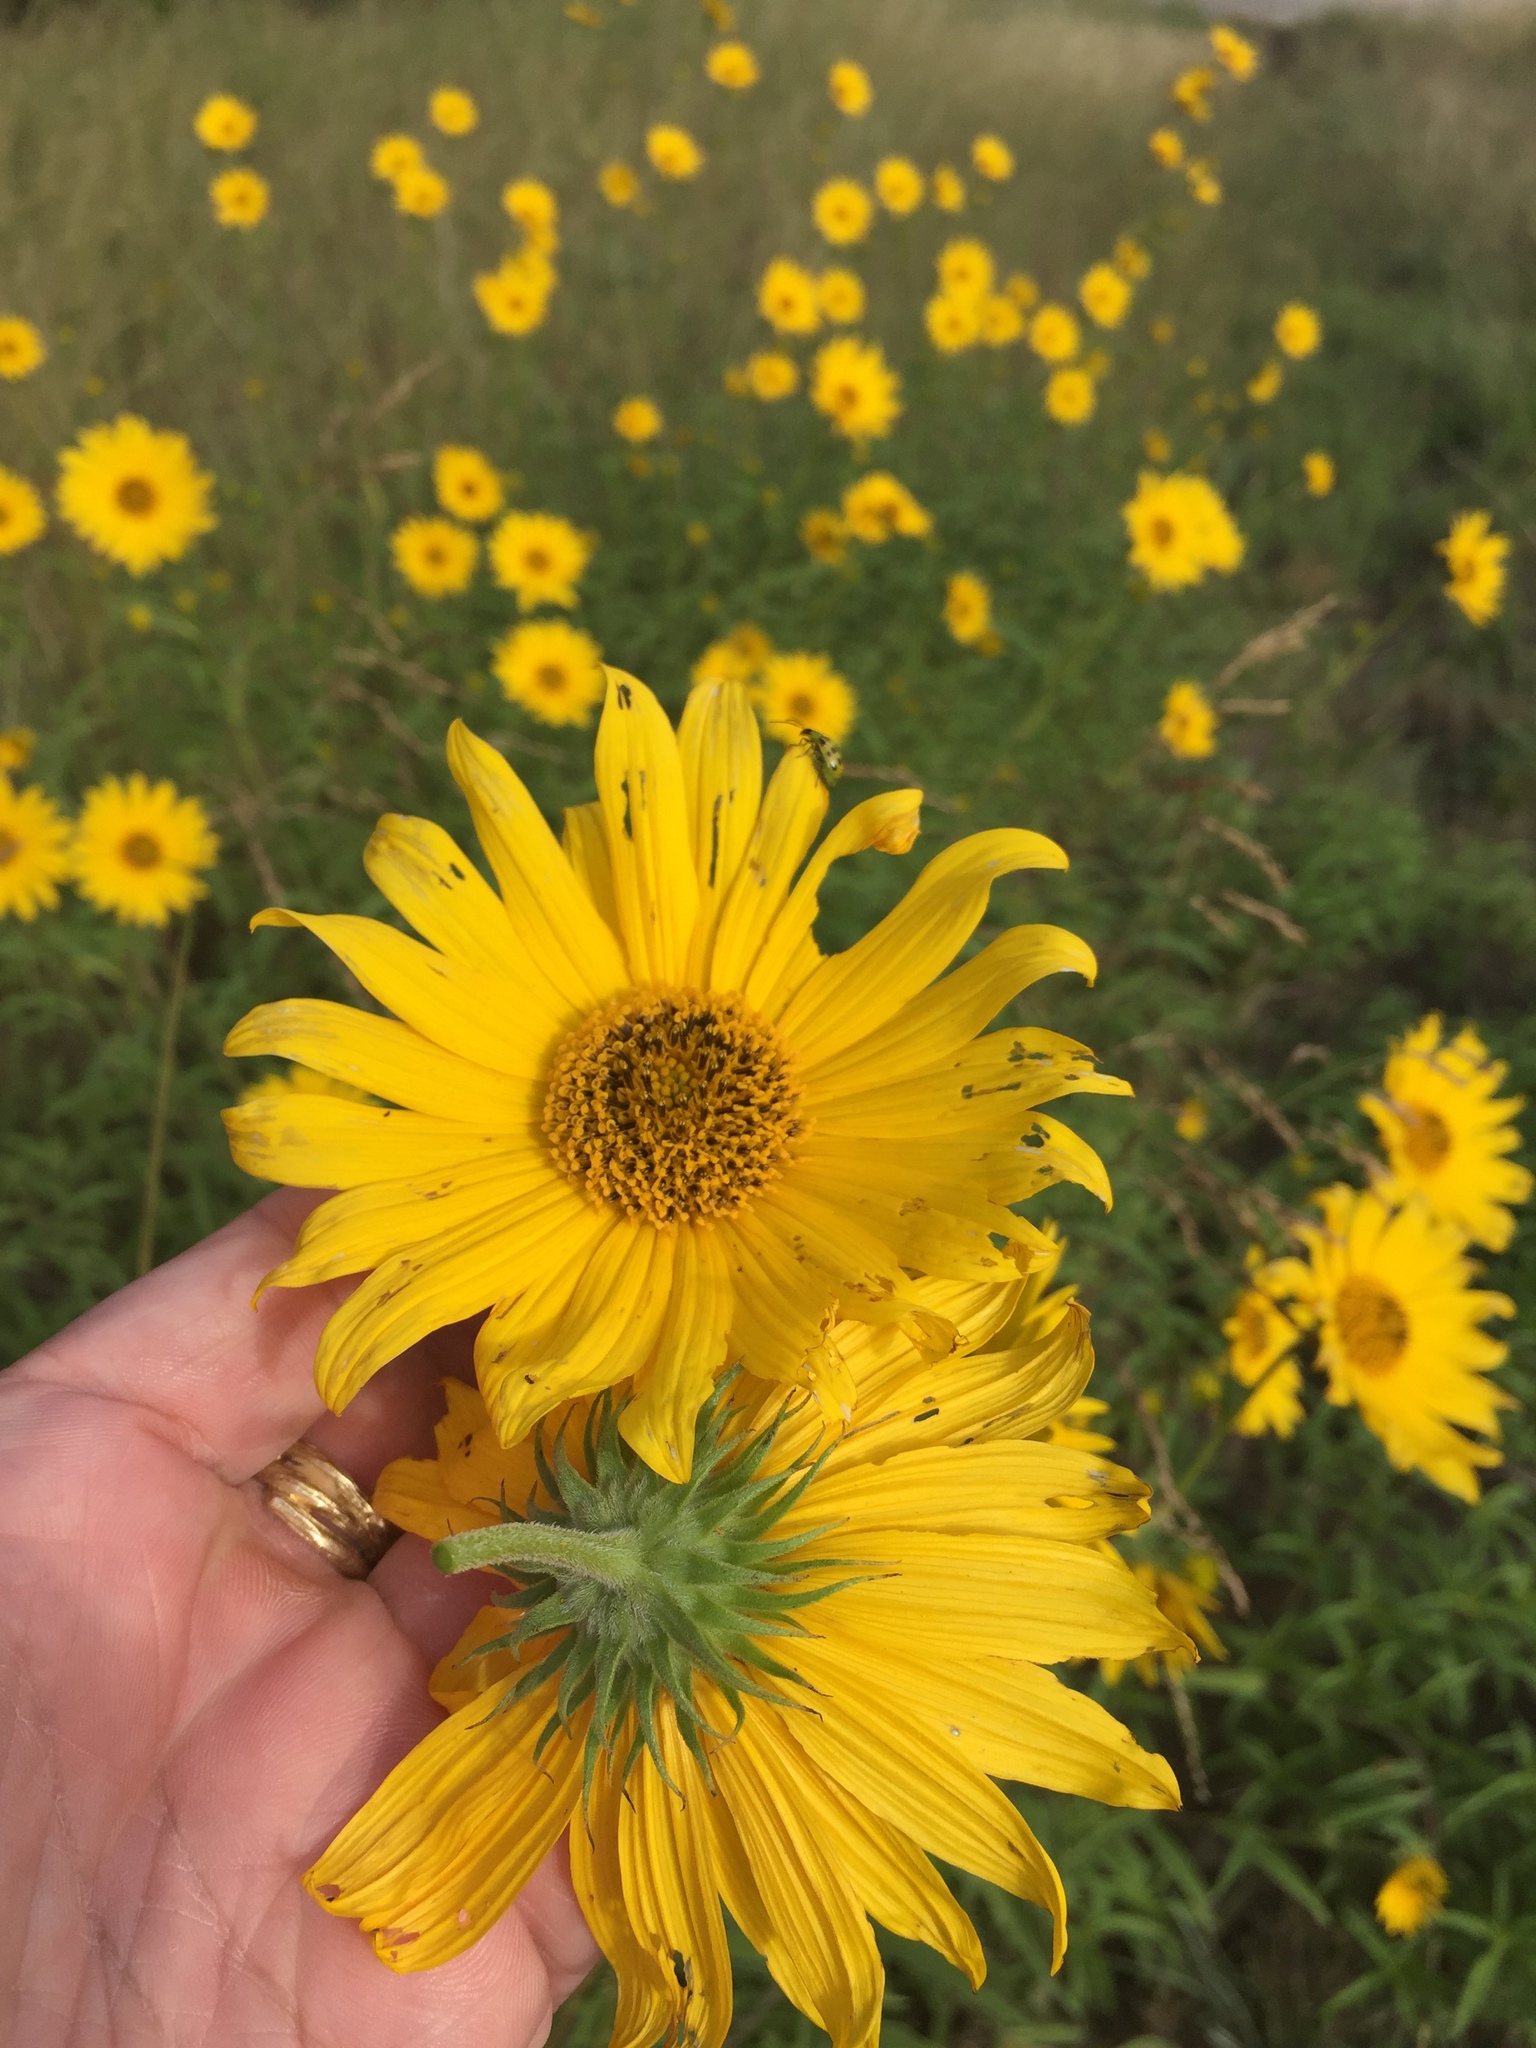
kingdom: Plantae
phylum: Tracheophyta
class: Magnoliopsida
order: Asterales
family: Asteraceae
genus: Helianthus
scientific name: Helianthus maximiliani
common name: Maximilian's sunflower
